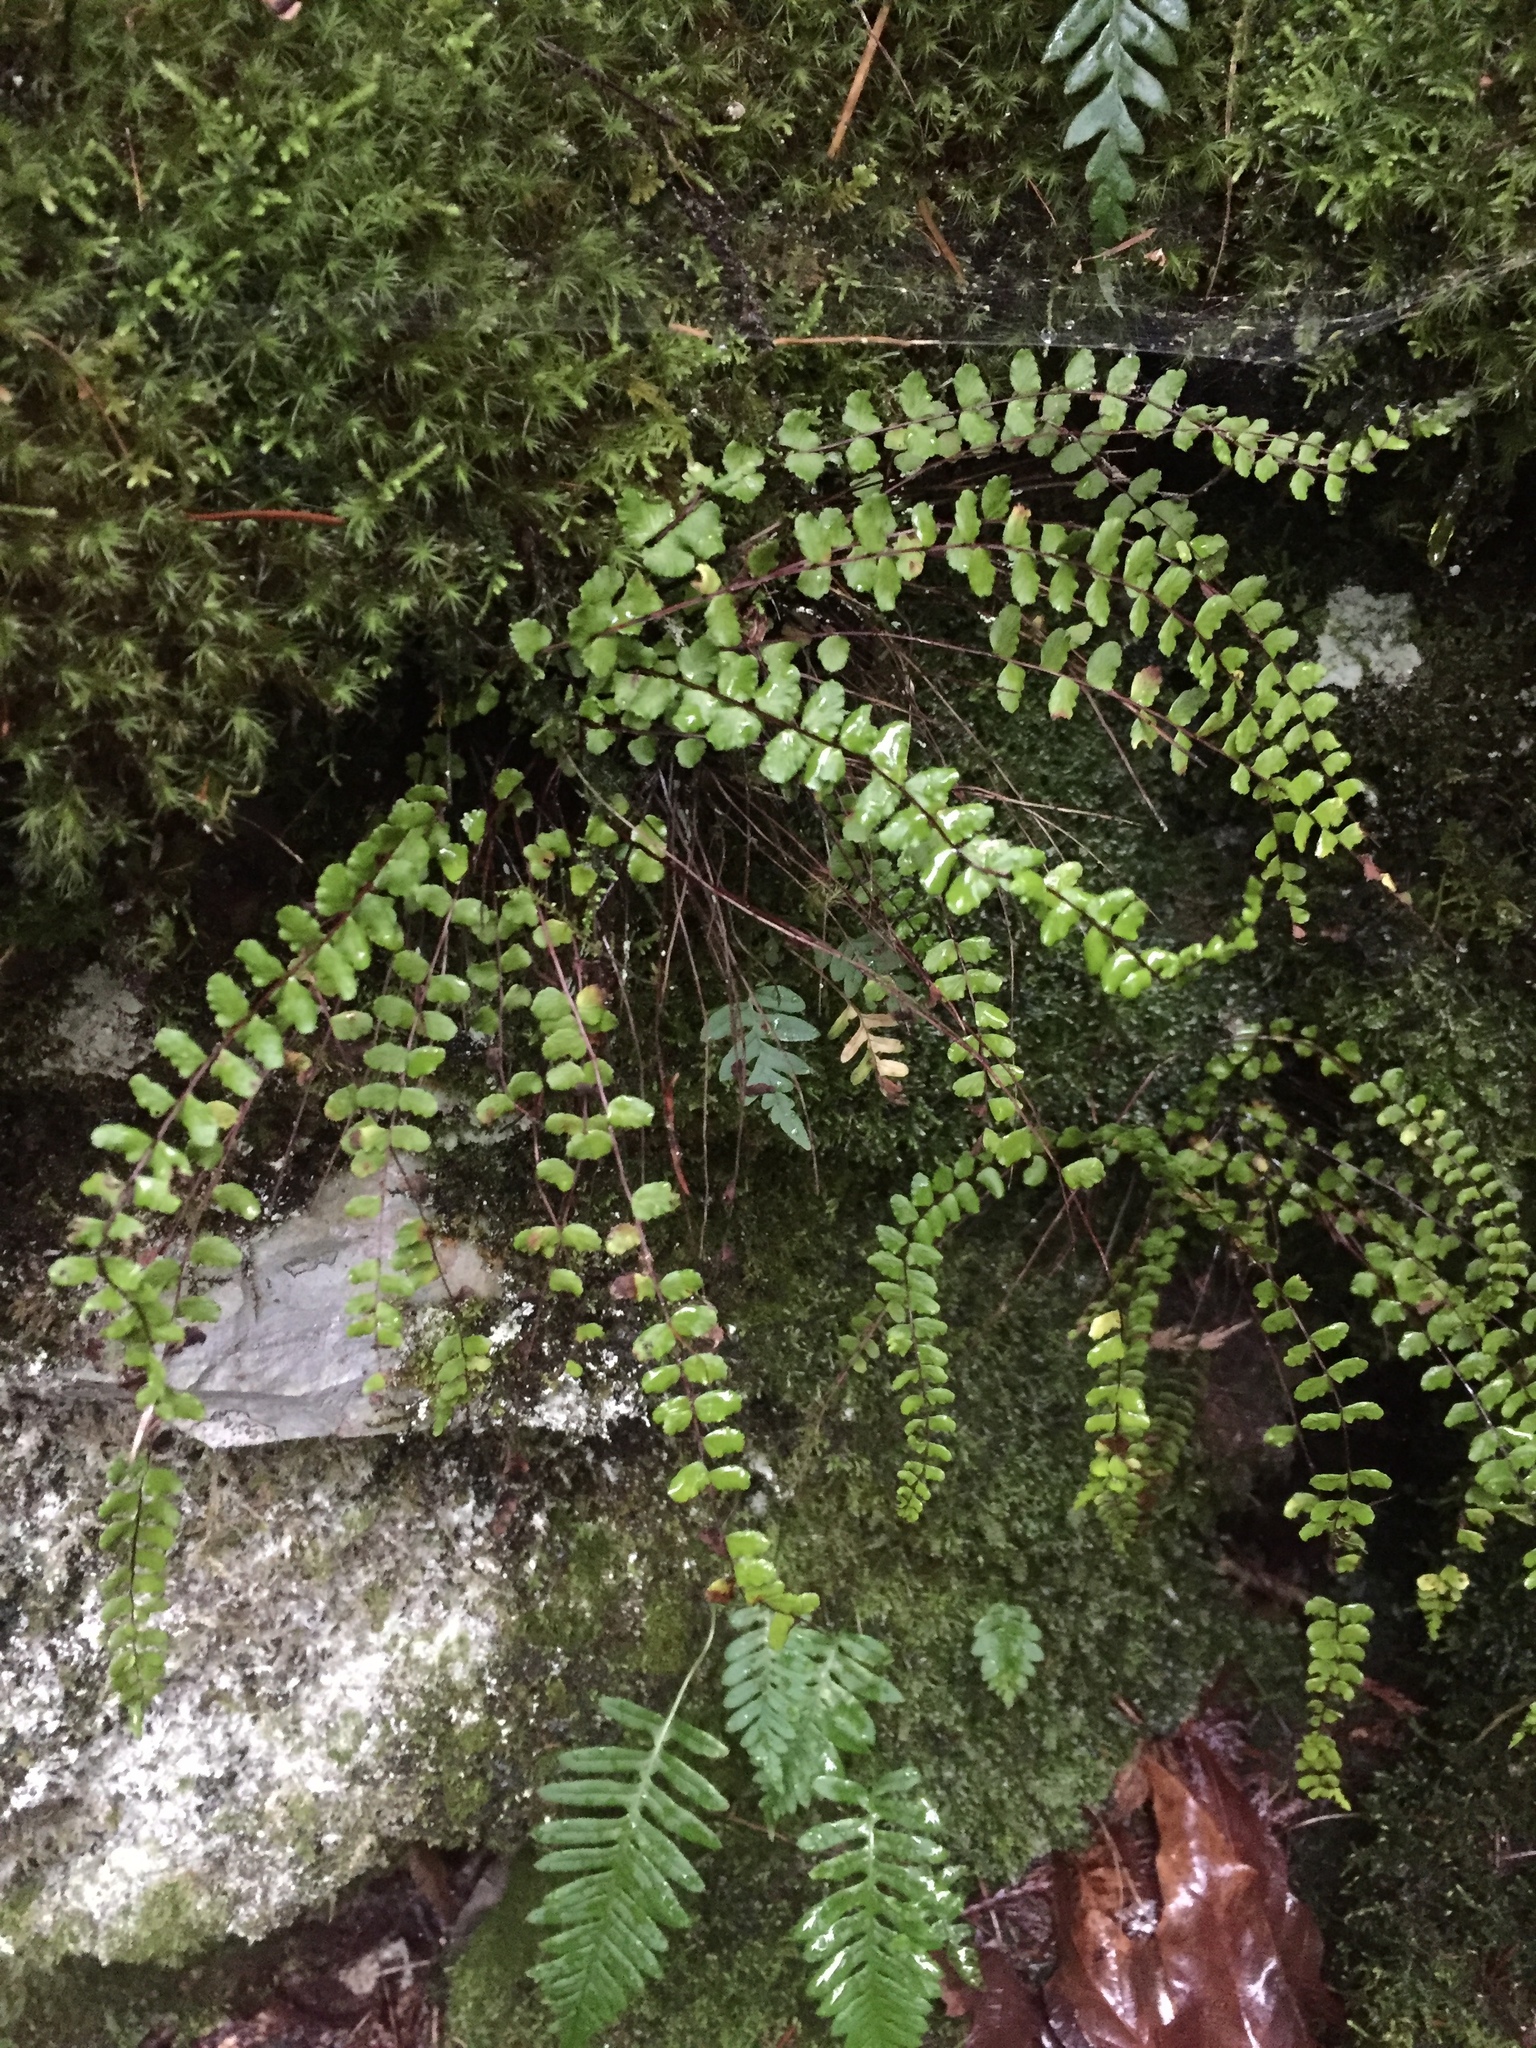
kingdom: Plantae
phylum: Tracheophyta
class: Polypodiopsida
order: Polypodiales
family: Aspleniaceae
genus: Asplenium
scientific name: Asplenium trichomanes
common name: Maidenhair spleenwort
